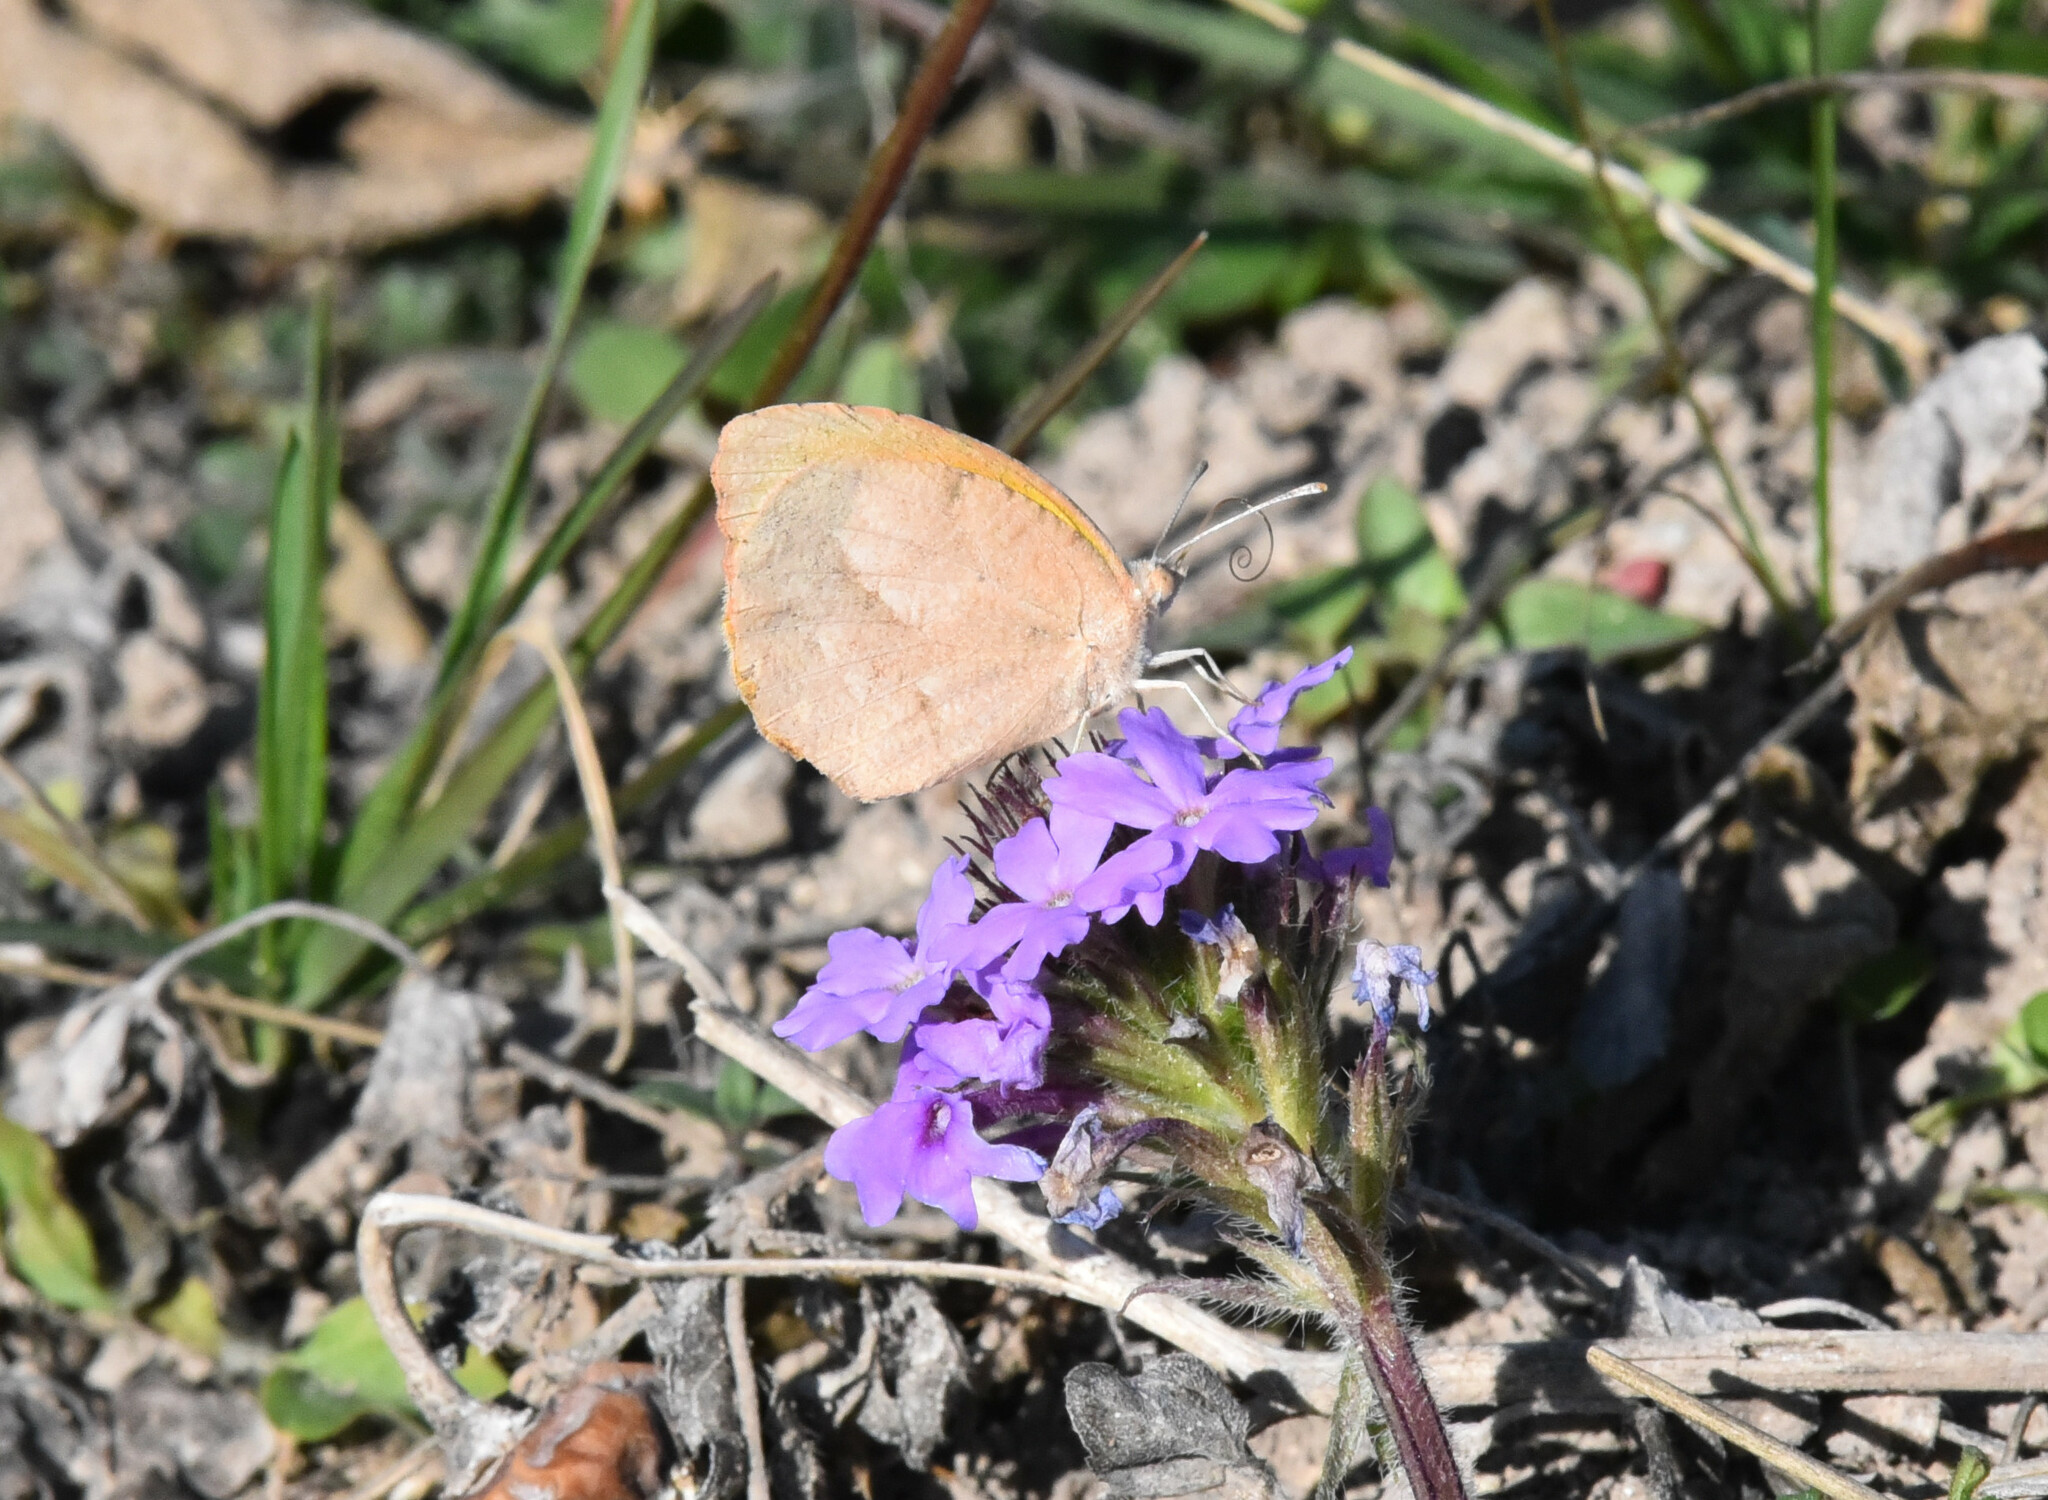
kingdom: Animalia
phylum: Arthropoda
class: Insecta
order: Lepidoptera
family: Pieridae
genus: Abaeis
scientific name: Abaeis nicippe
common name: Sleepy orange
